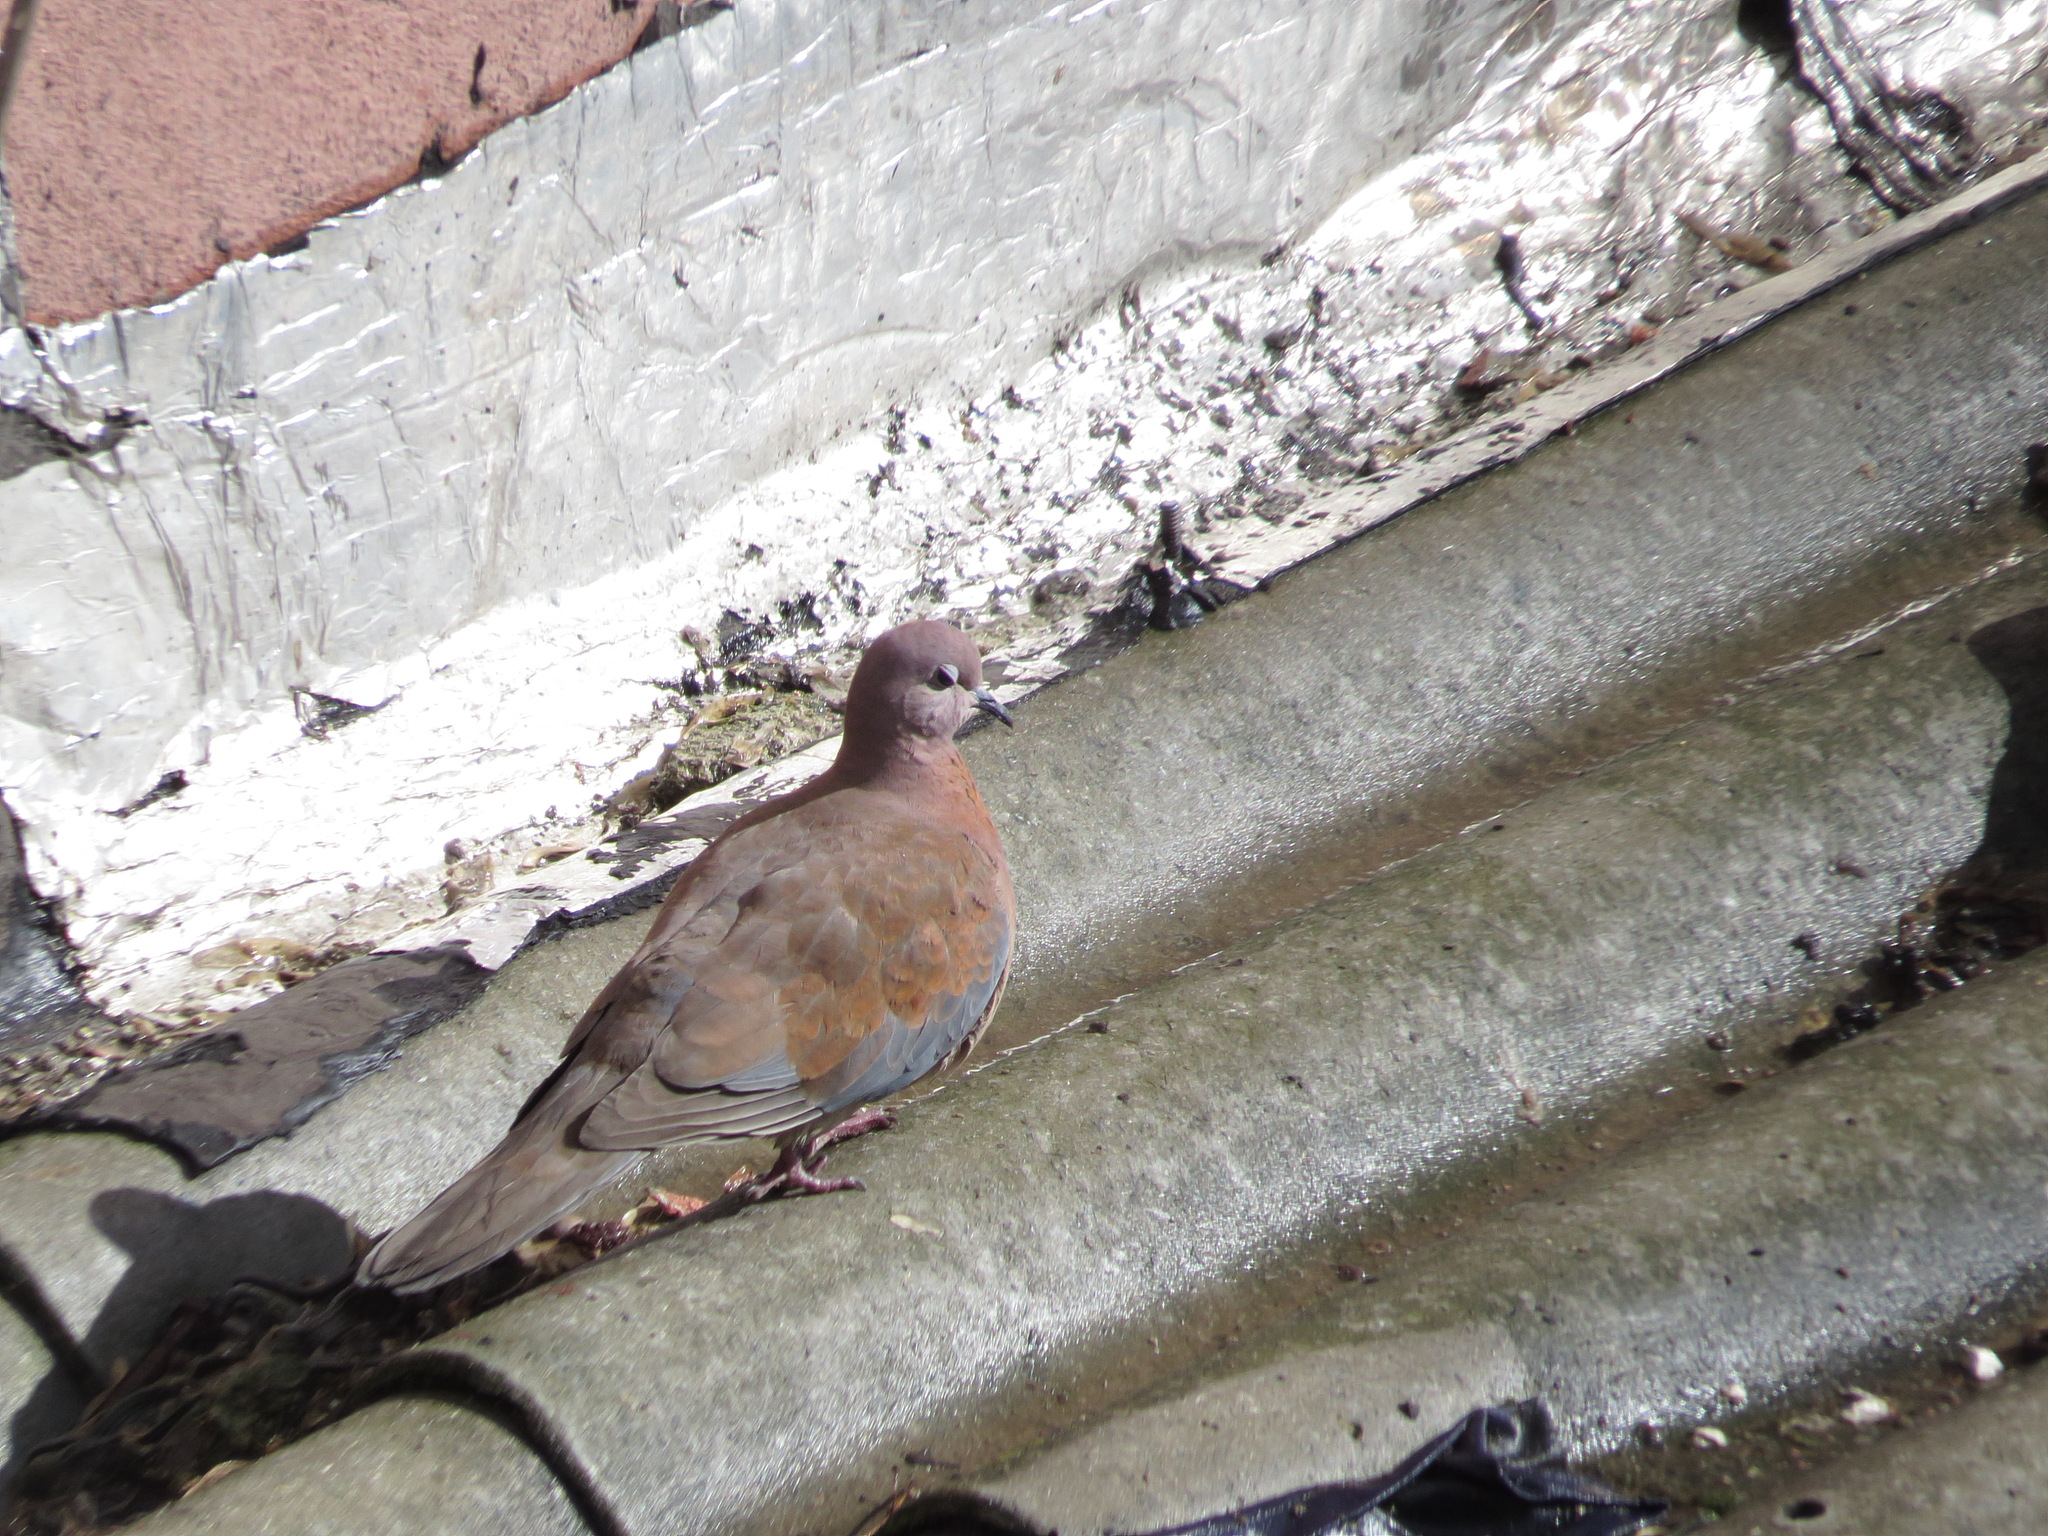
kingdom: Animalia
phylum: Chordata
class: Aves
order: Columbiformes
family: Columbidae
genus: Spilopelia
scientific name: Spilopelia senegalensis
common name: Laughing dove
